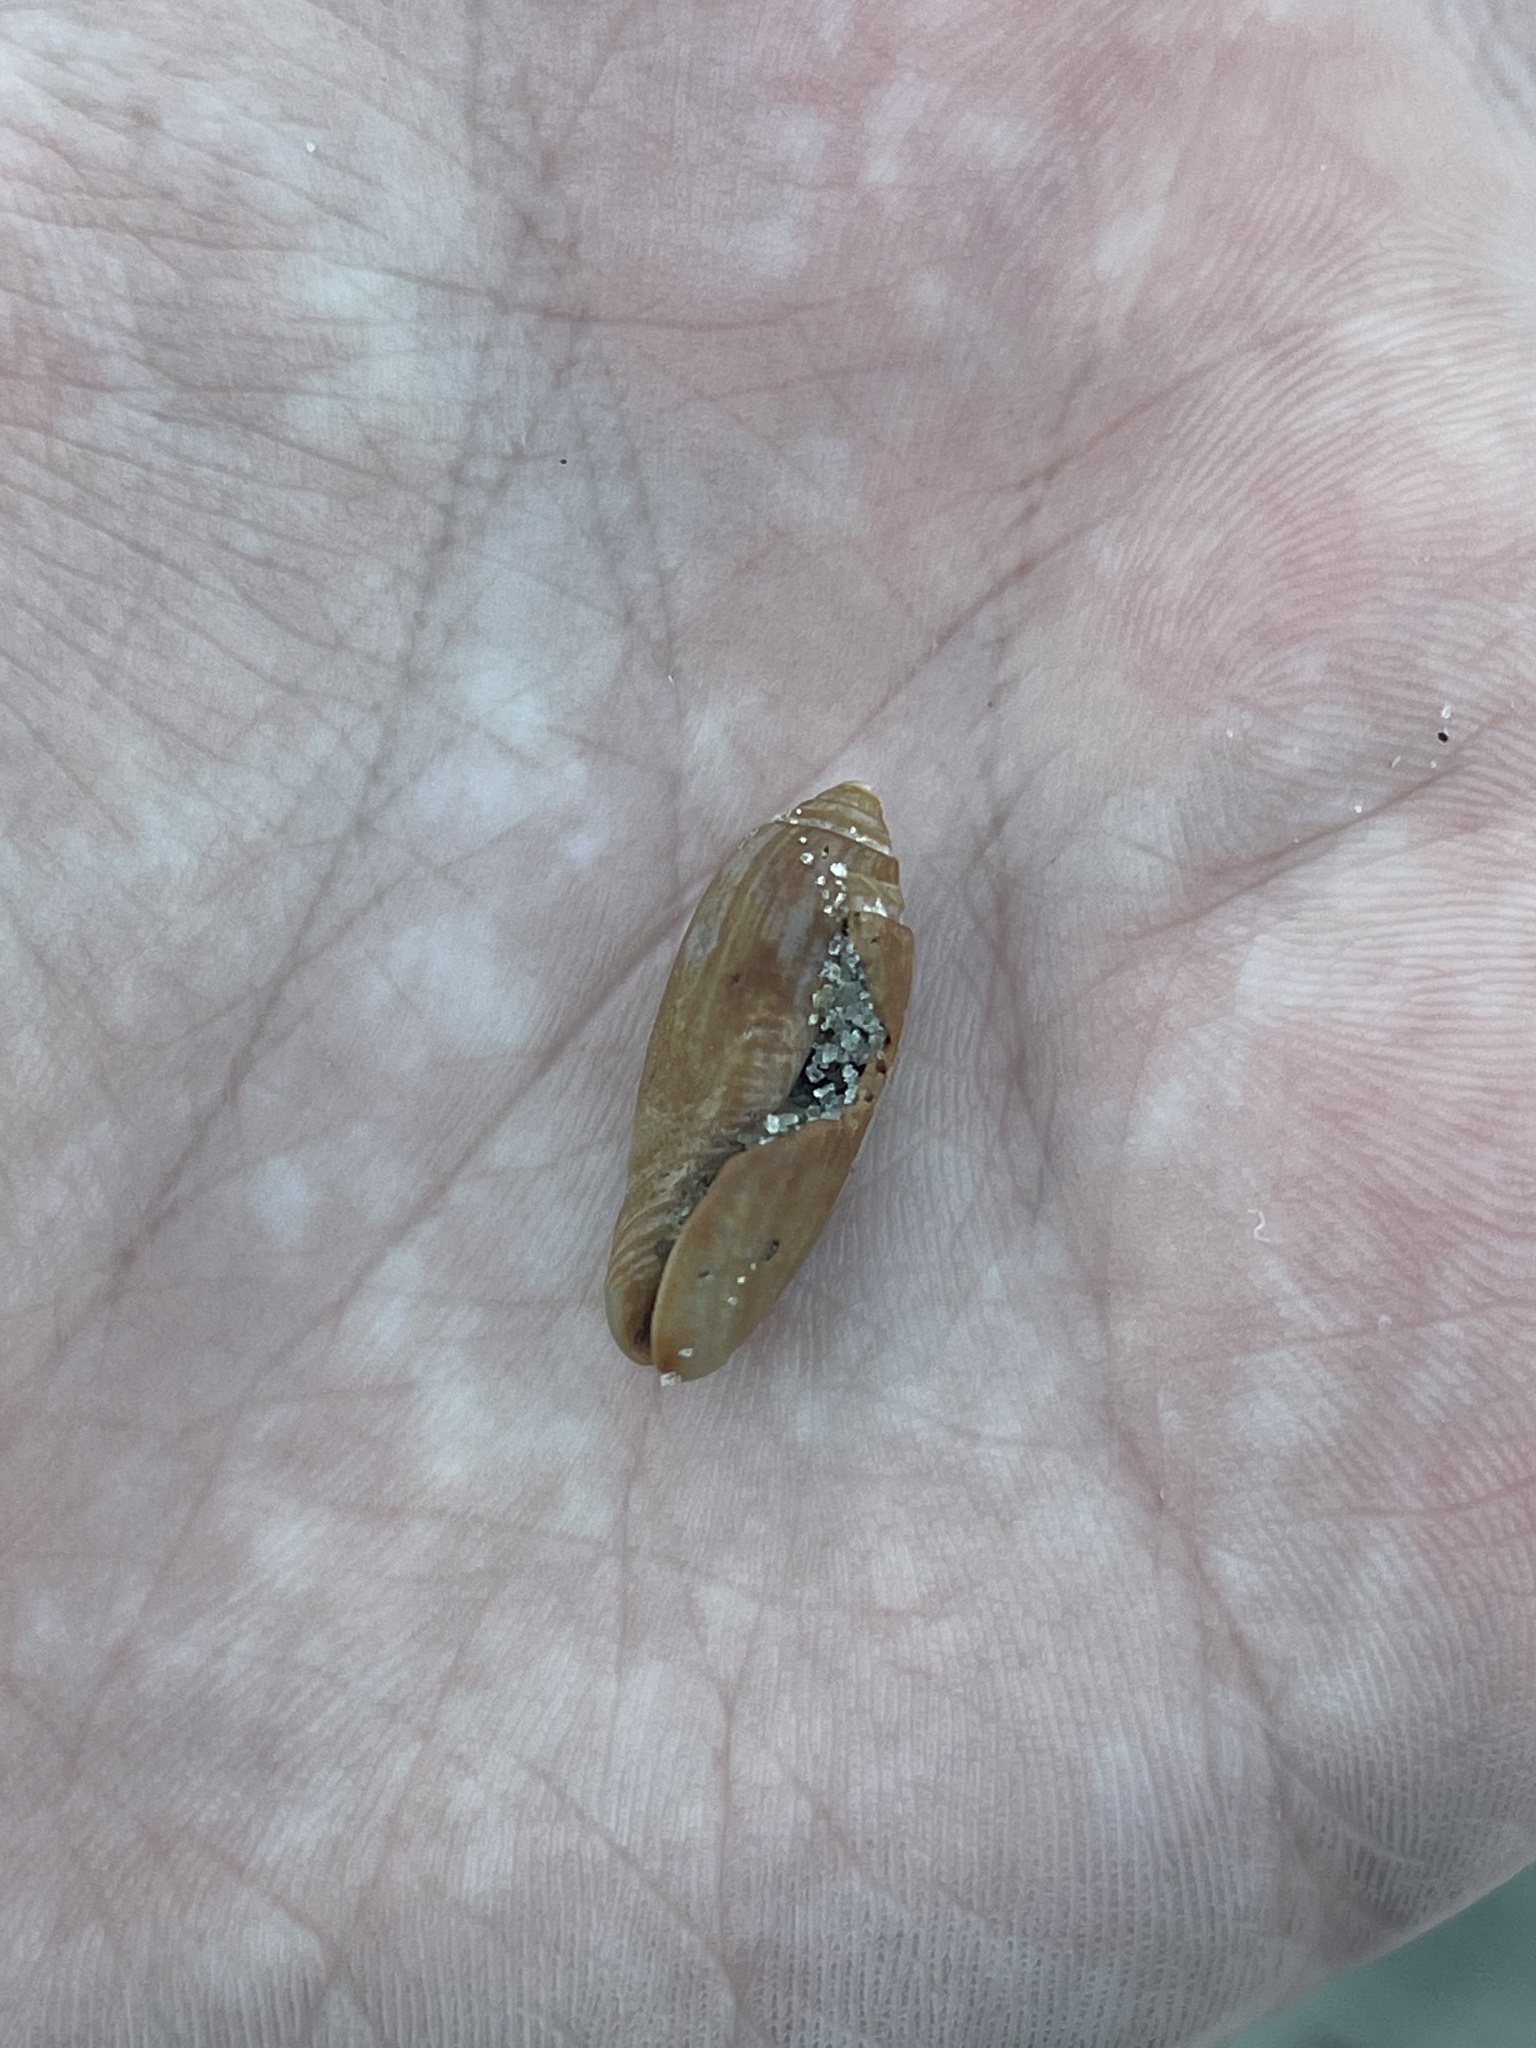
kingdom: Animalia
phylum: Mollusca
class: Gastropoda
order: Neogastropoda
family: Olividae
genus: Oliva
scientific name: Oliva sayana
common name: Lettered olive
